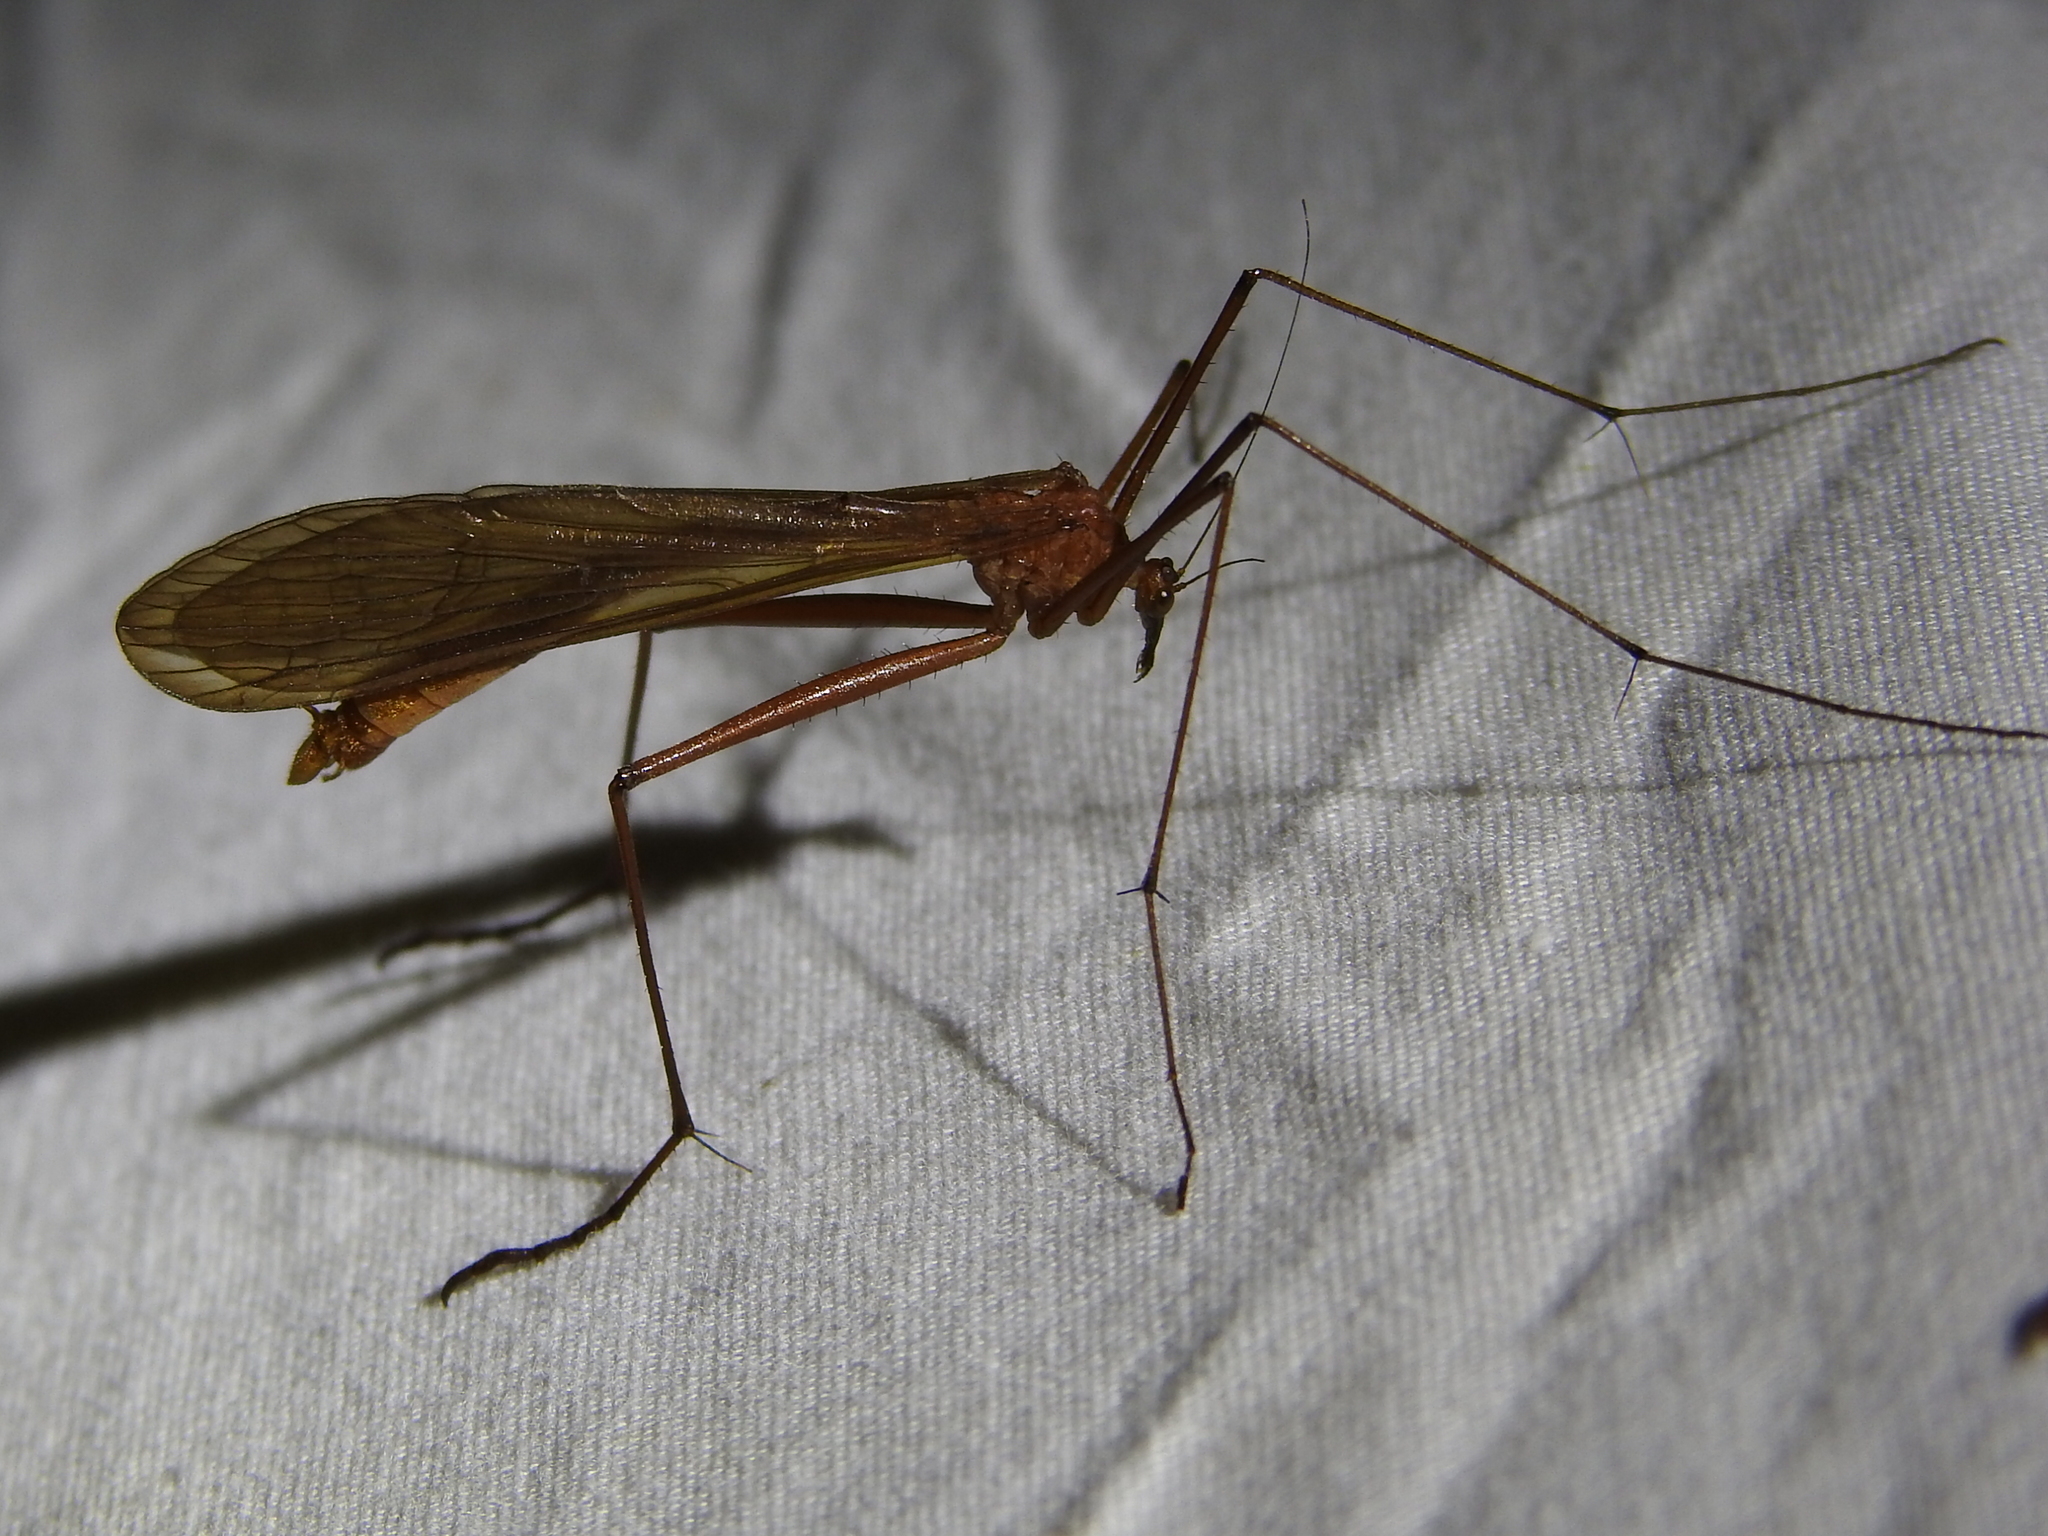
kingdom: Animalia
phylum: Arthropoda
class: Insecta
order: Mecoptera
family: Bittacidae
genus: Bittacus
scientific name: Bittacus texanus
